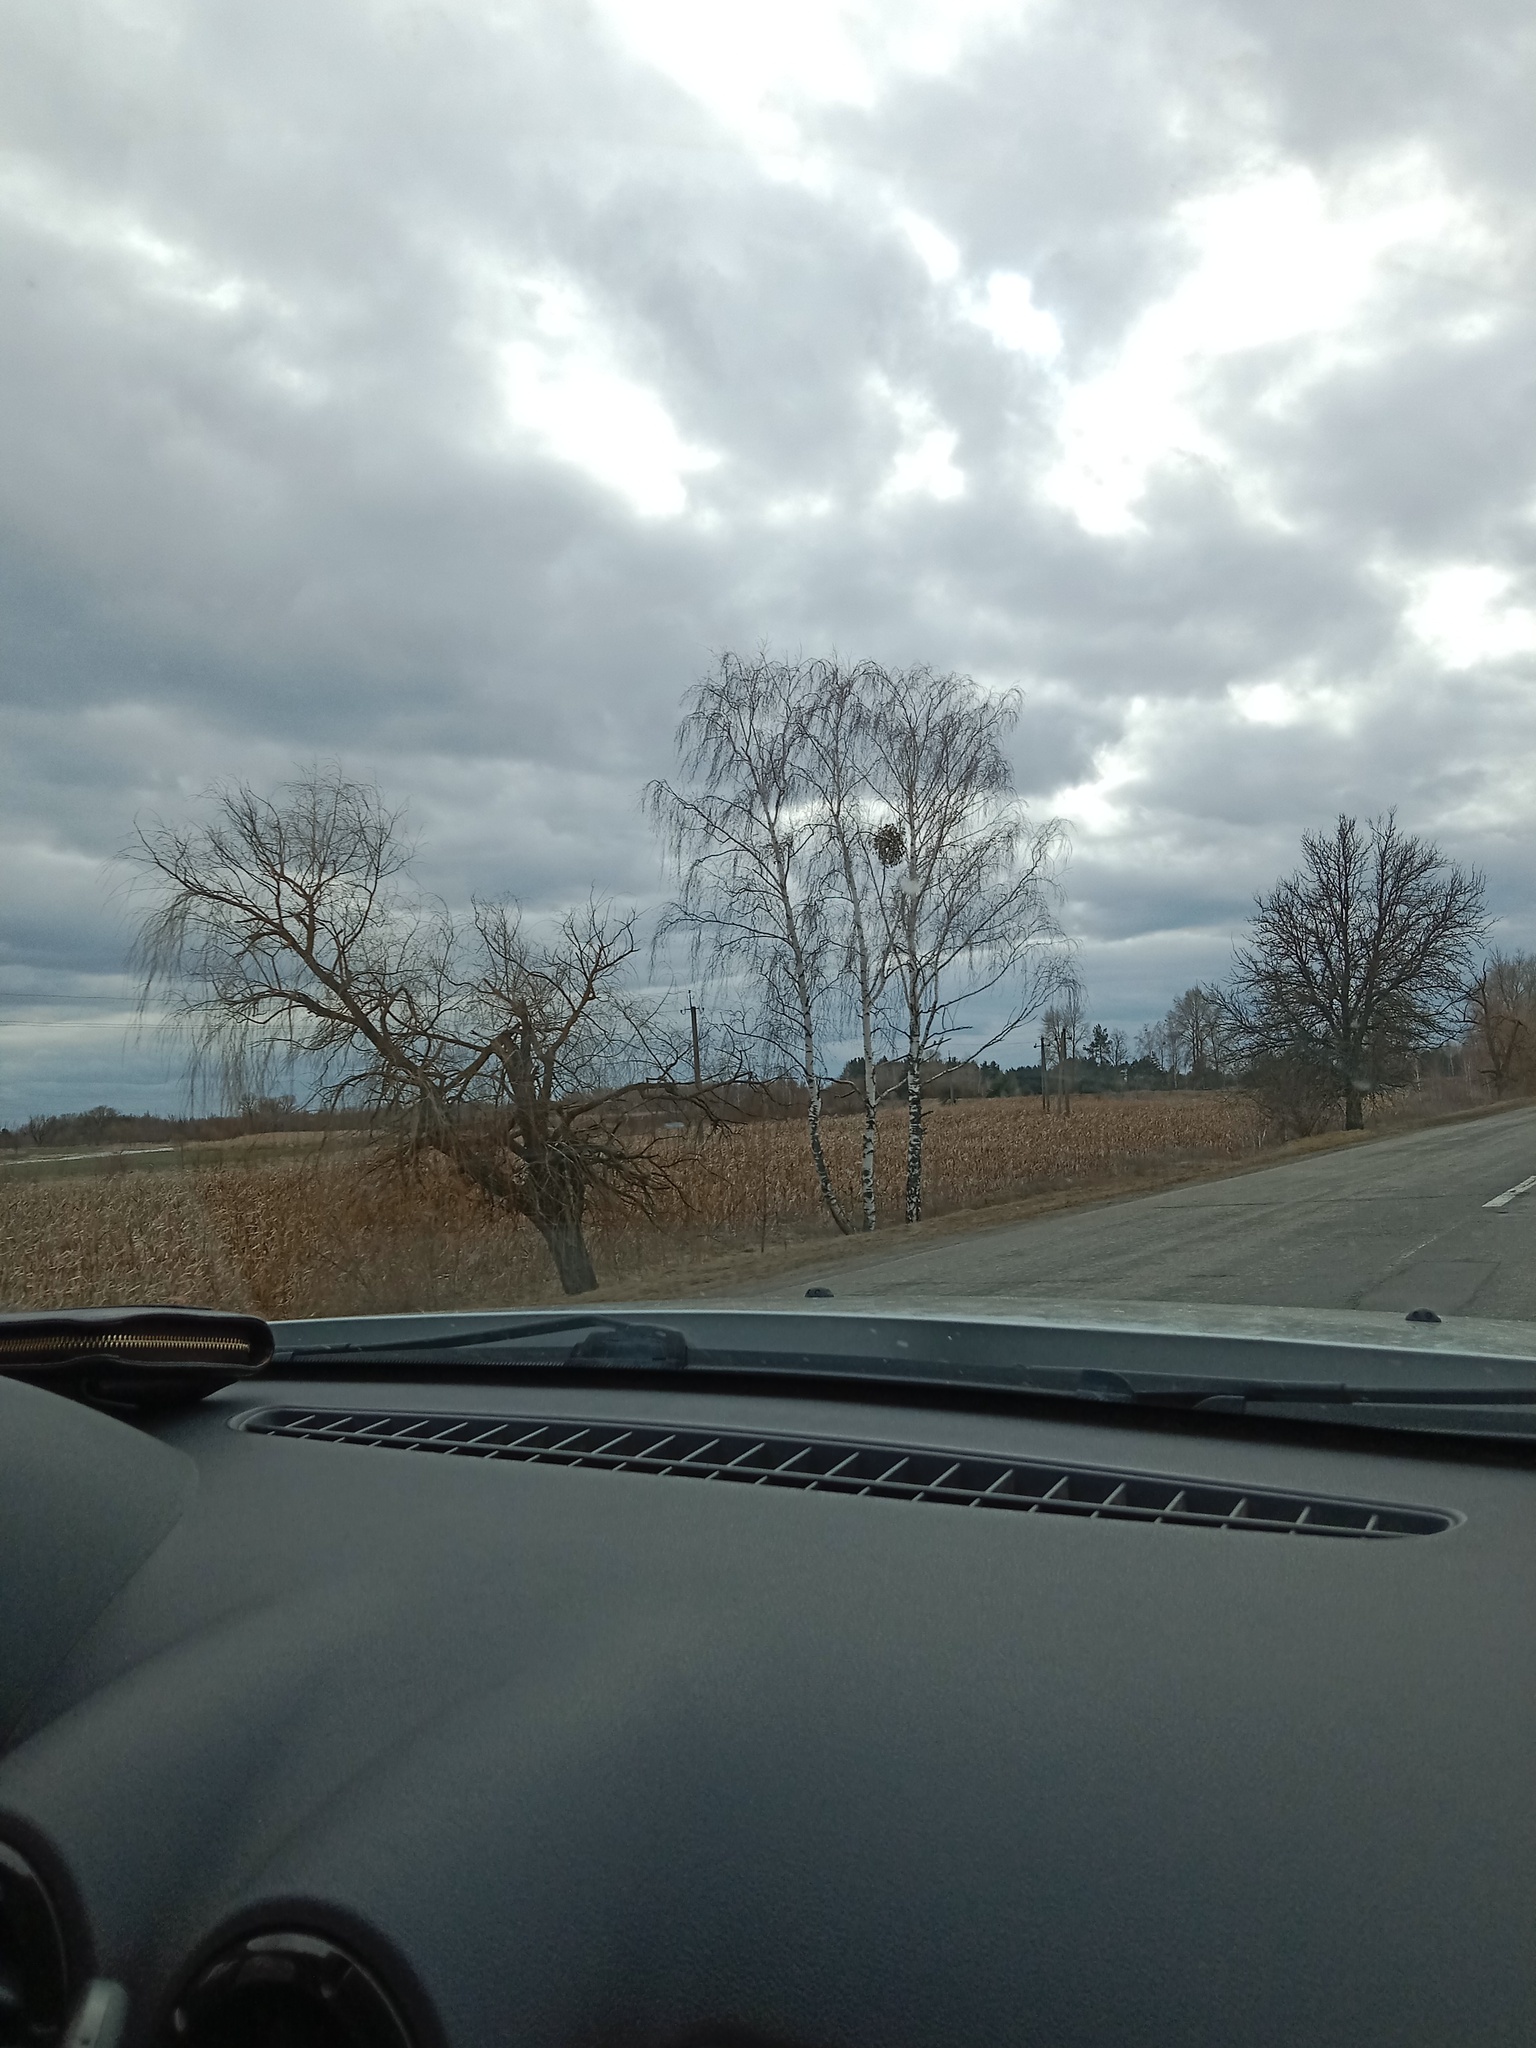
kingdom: Plantae
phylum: Tracheophyta
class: Magnoliopsida
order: Santalales
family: Viscaceae
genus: Viscum
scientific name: Viscum album
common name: Mistletoe
